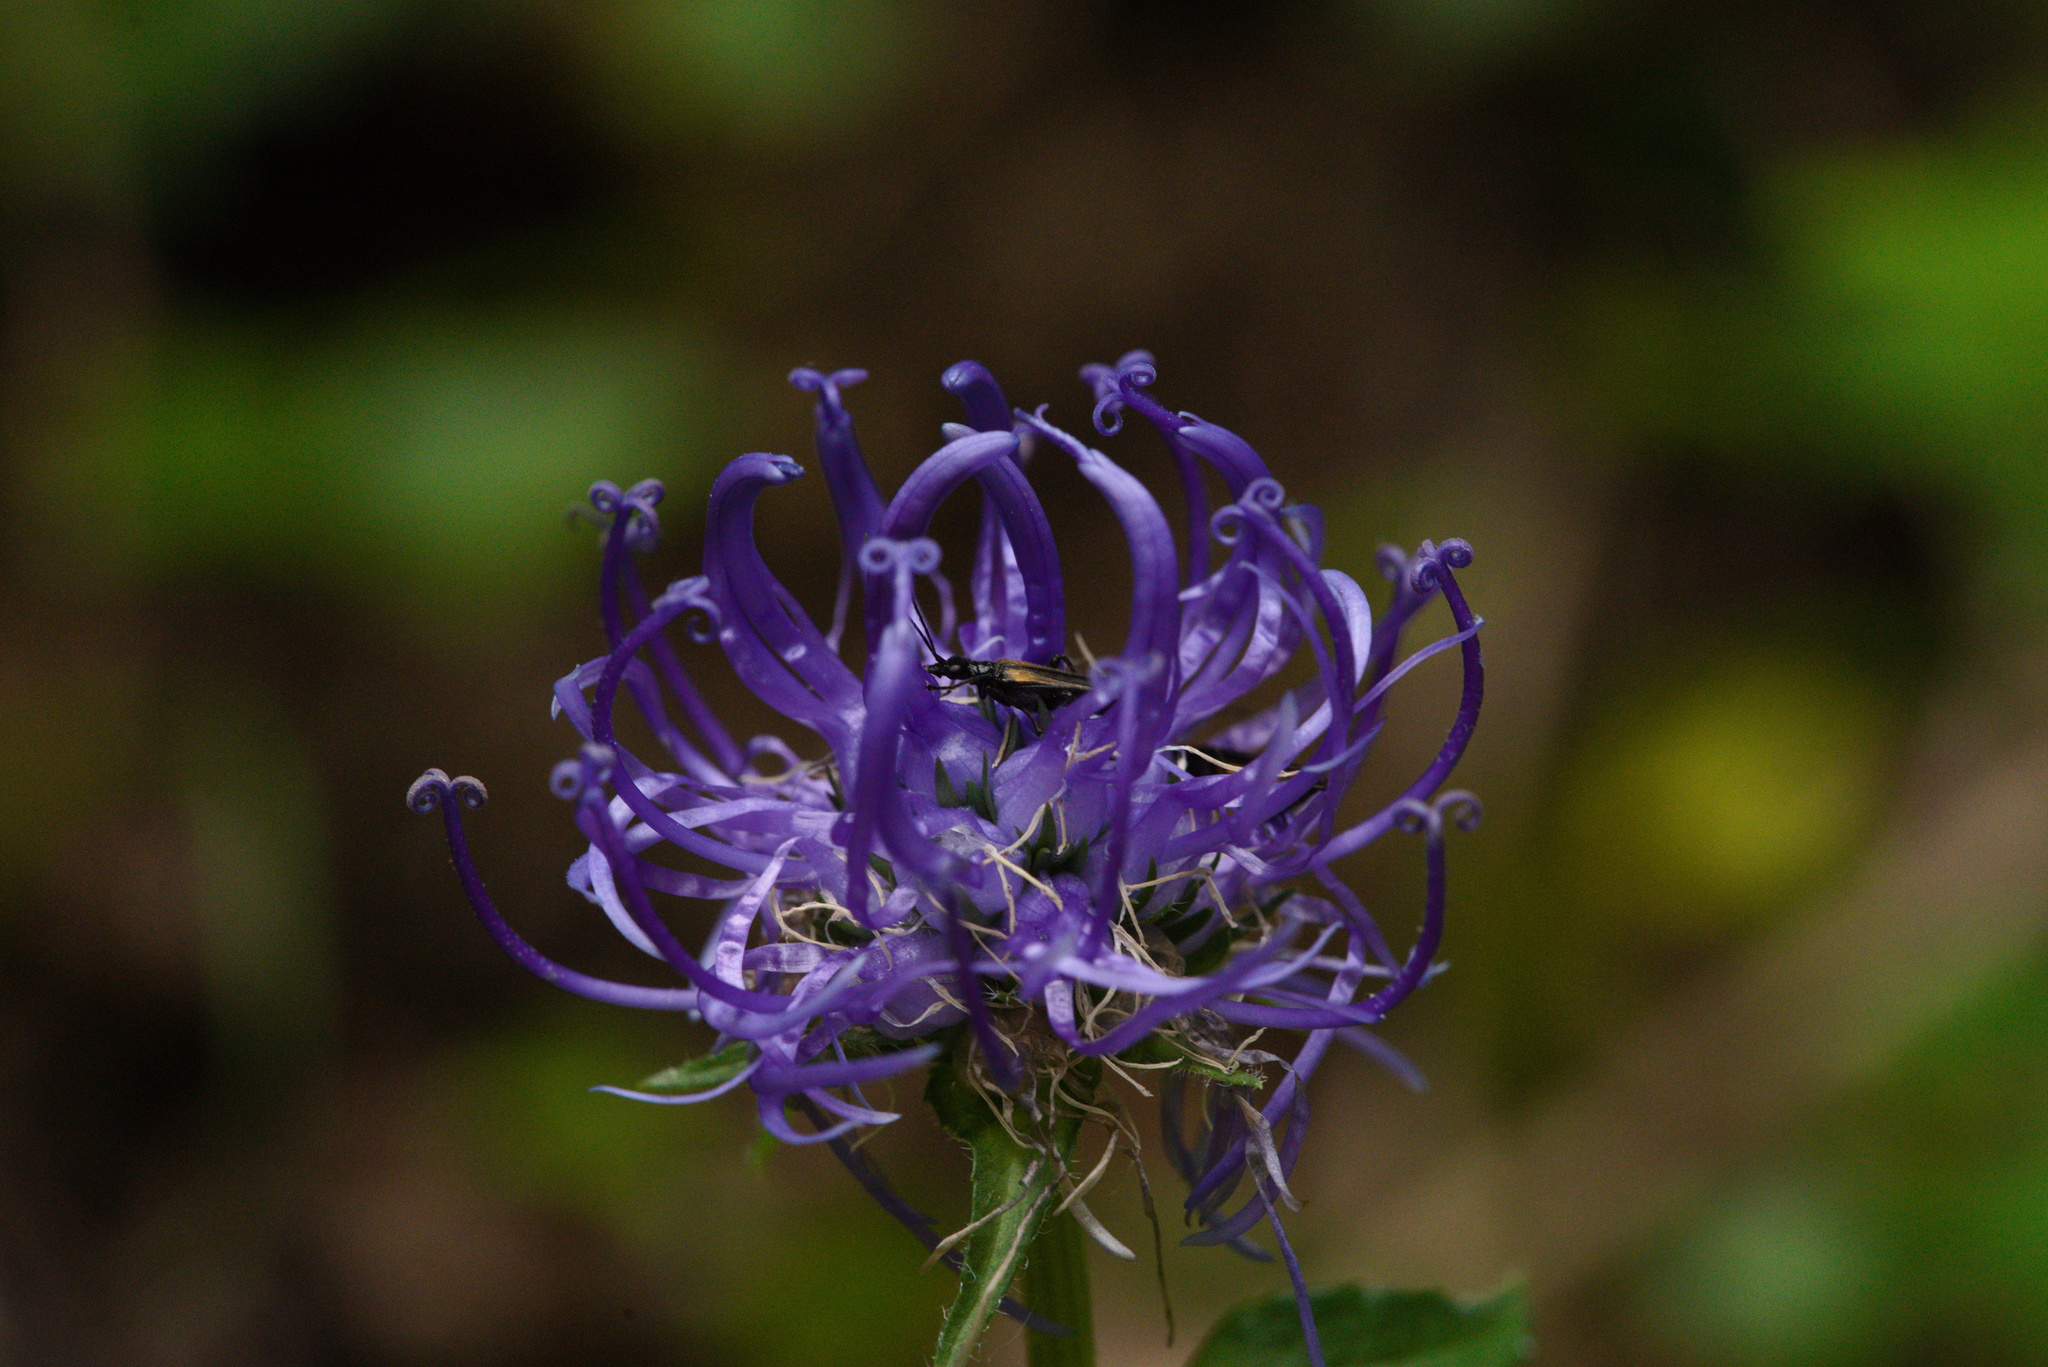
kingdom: Plantae
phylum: Tracheophyta
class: Magnoliopsida
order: Asterales
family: Campanulaceae
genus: Phyteuma
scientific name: Phyteuma orbiculare
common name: Round-headed rampion
